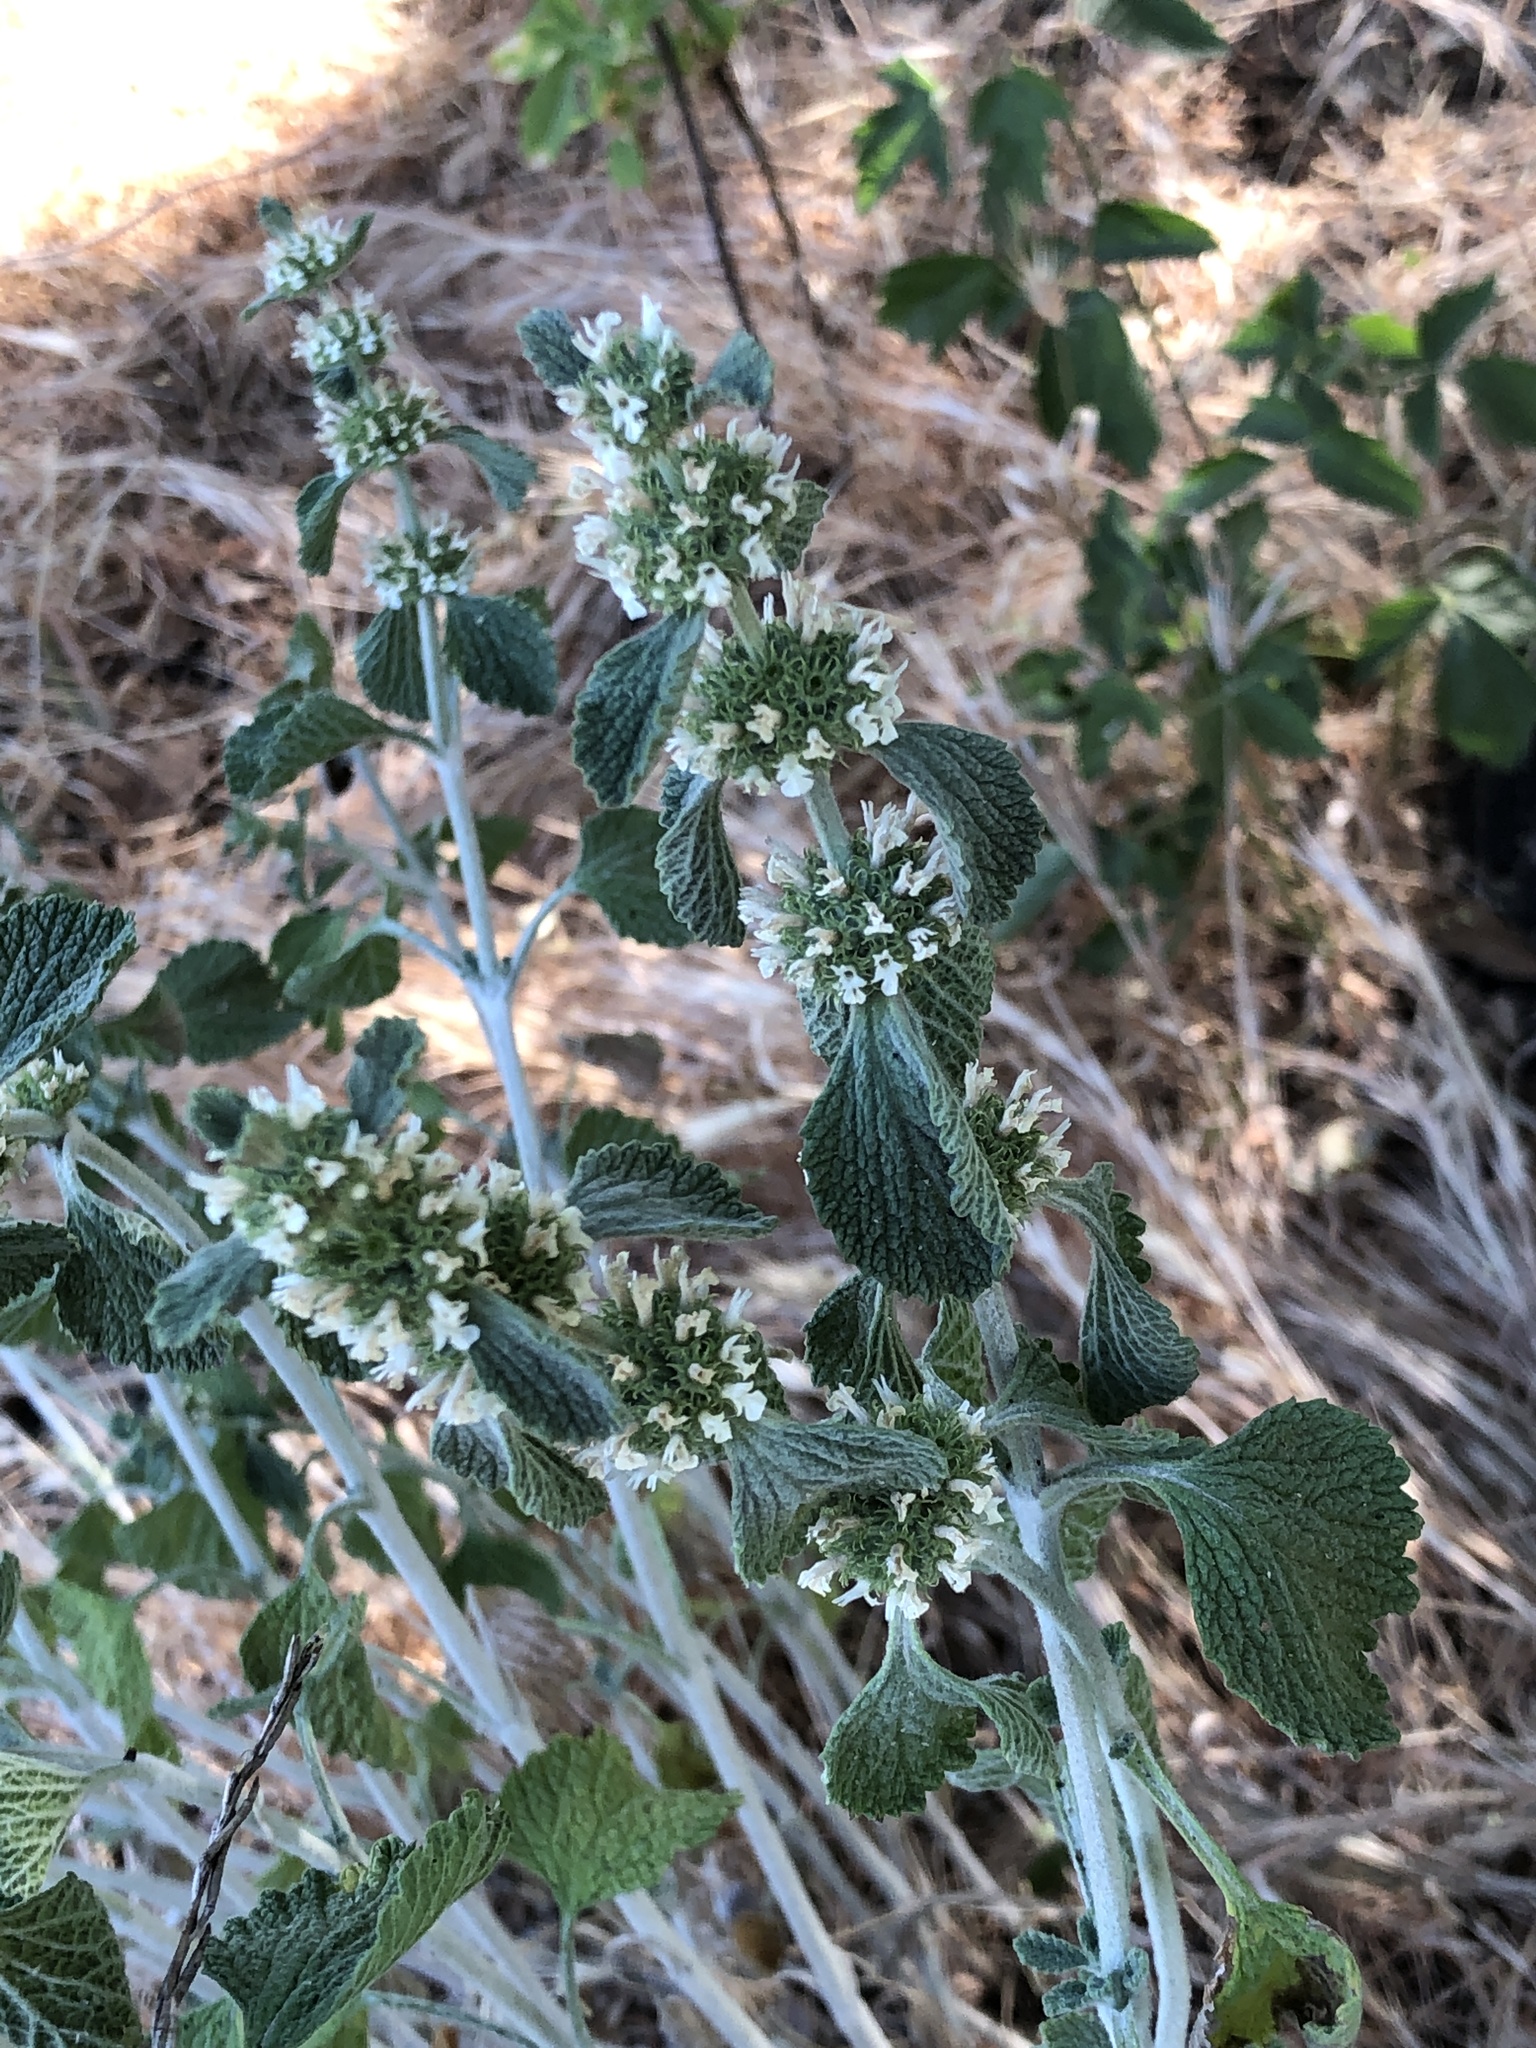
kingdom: Plantae
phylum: Tracheophyta
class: Magnoliopsida
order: Lamiales
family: Lamiaceae
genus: Marrubium
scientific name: Marrubium vulgare
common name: Horehound
